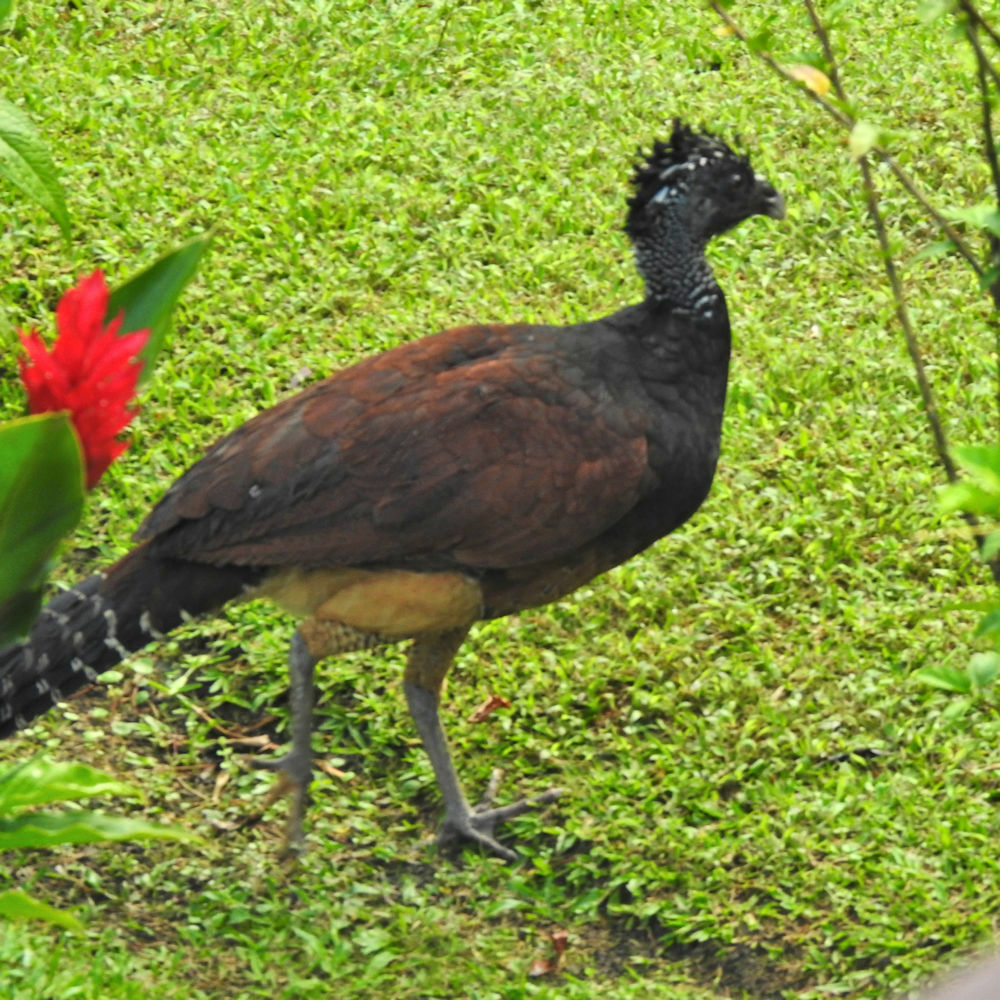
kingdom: Animalia
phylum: Chordata
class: Aves
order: Galliformes
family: Cracidae
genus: Crax
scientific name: Crax rubra
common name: Great curassow
